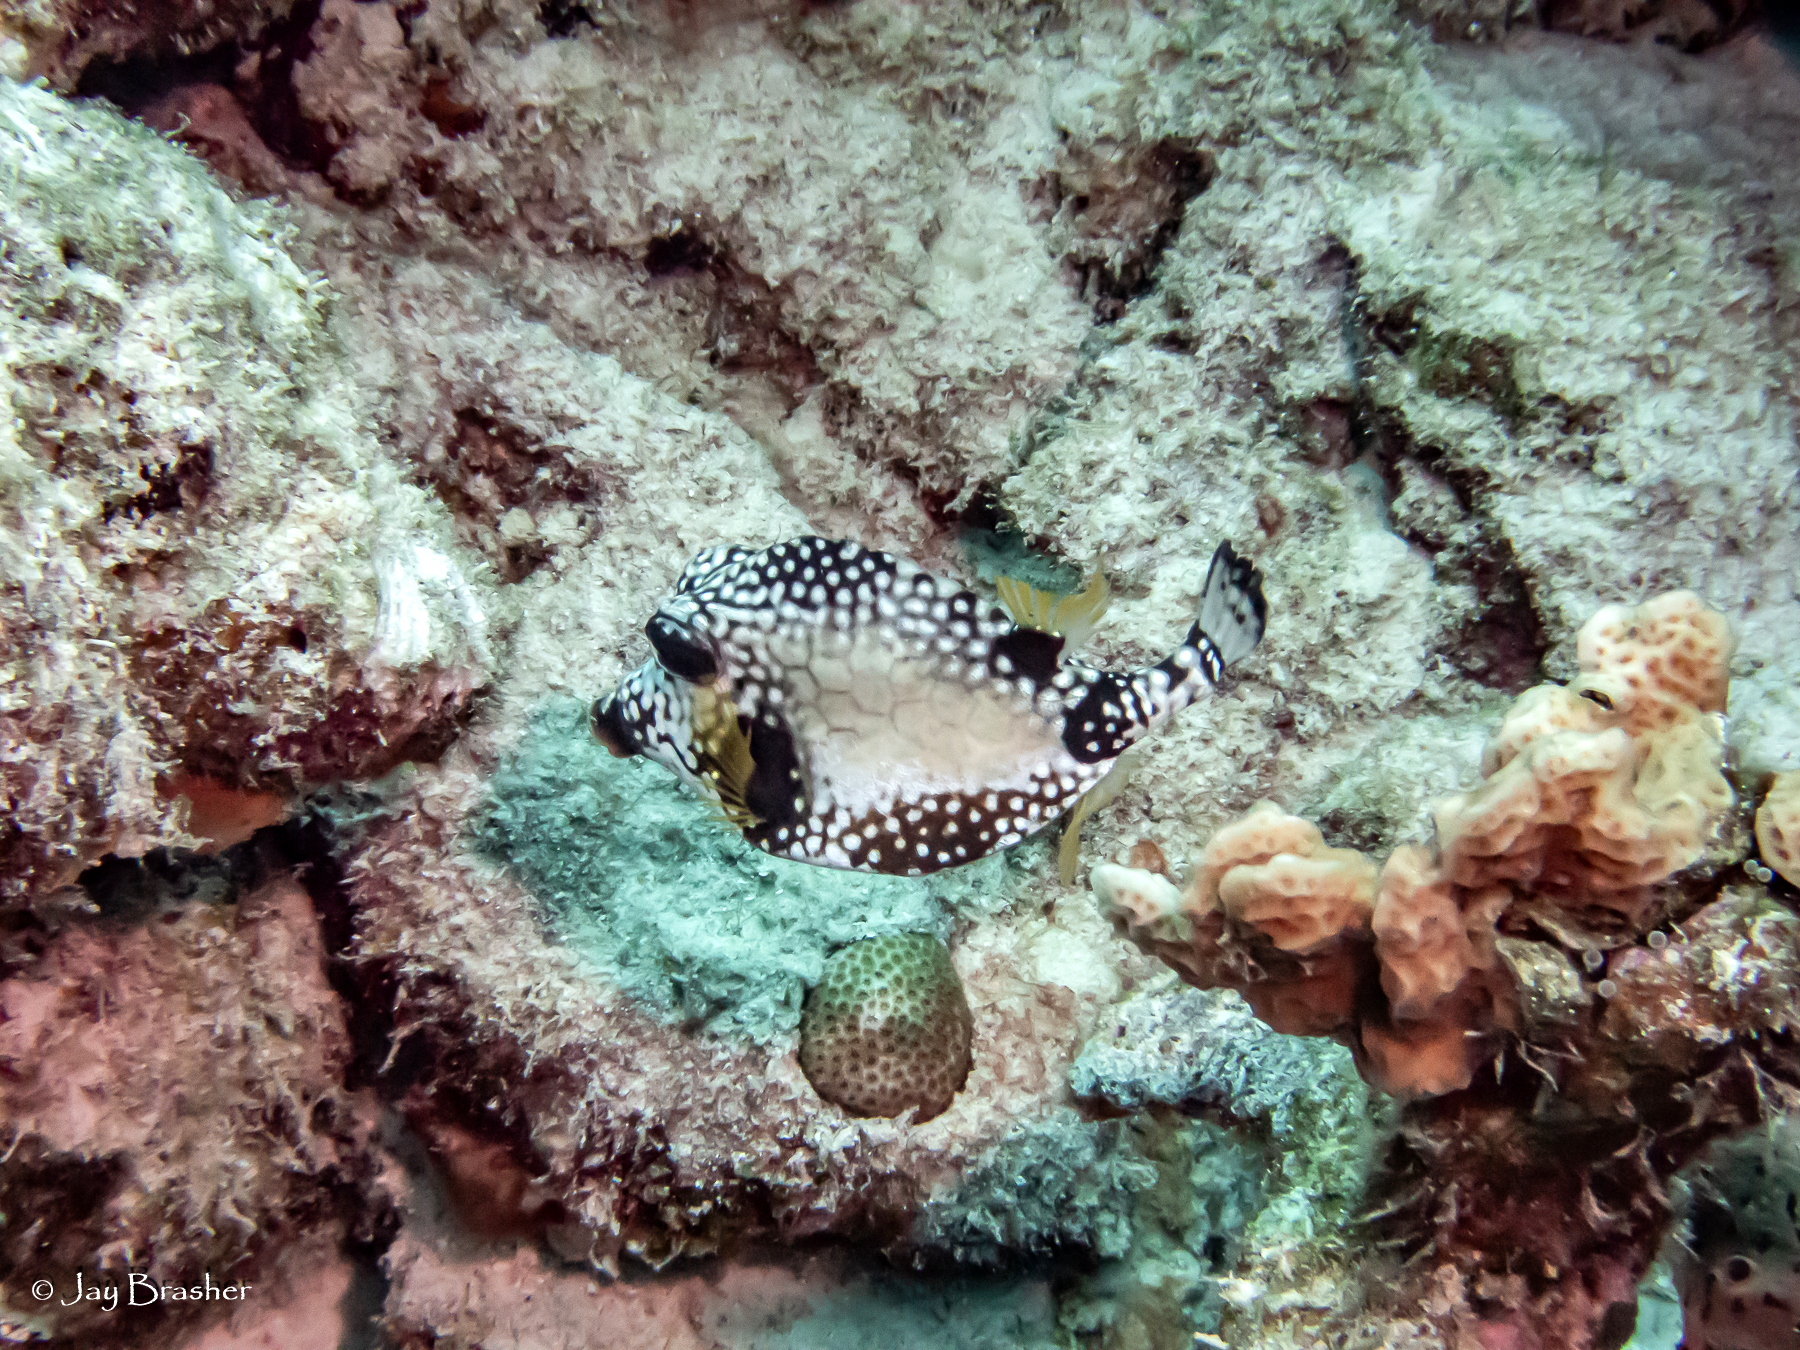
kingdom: Animalia
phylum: Chordata
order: Tetraodontiformes
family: Ostraciidae
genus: Lactophrys
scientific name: Lactophrys triqueter
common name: Smooth trunkfish
